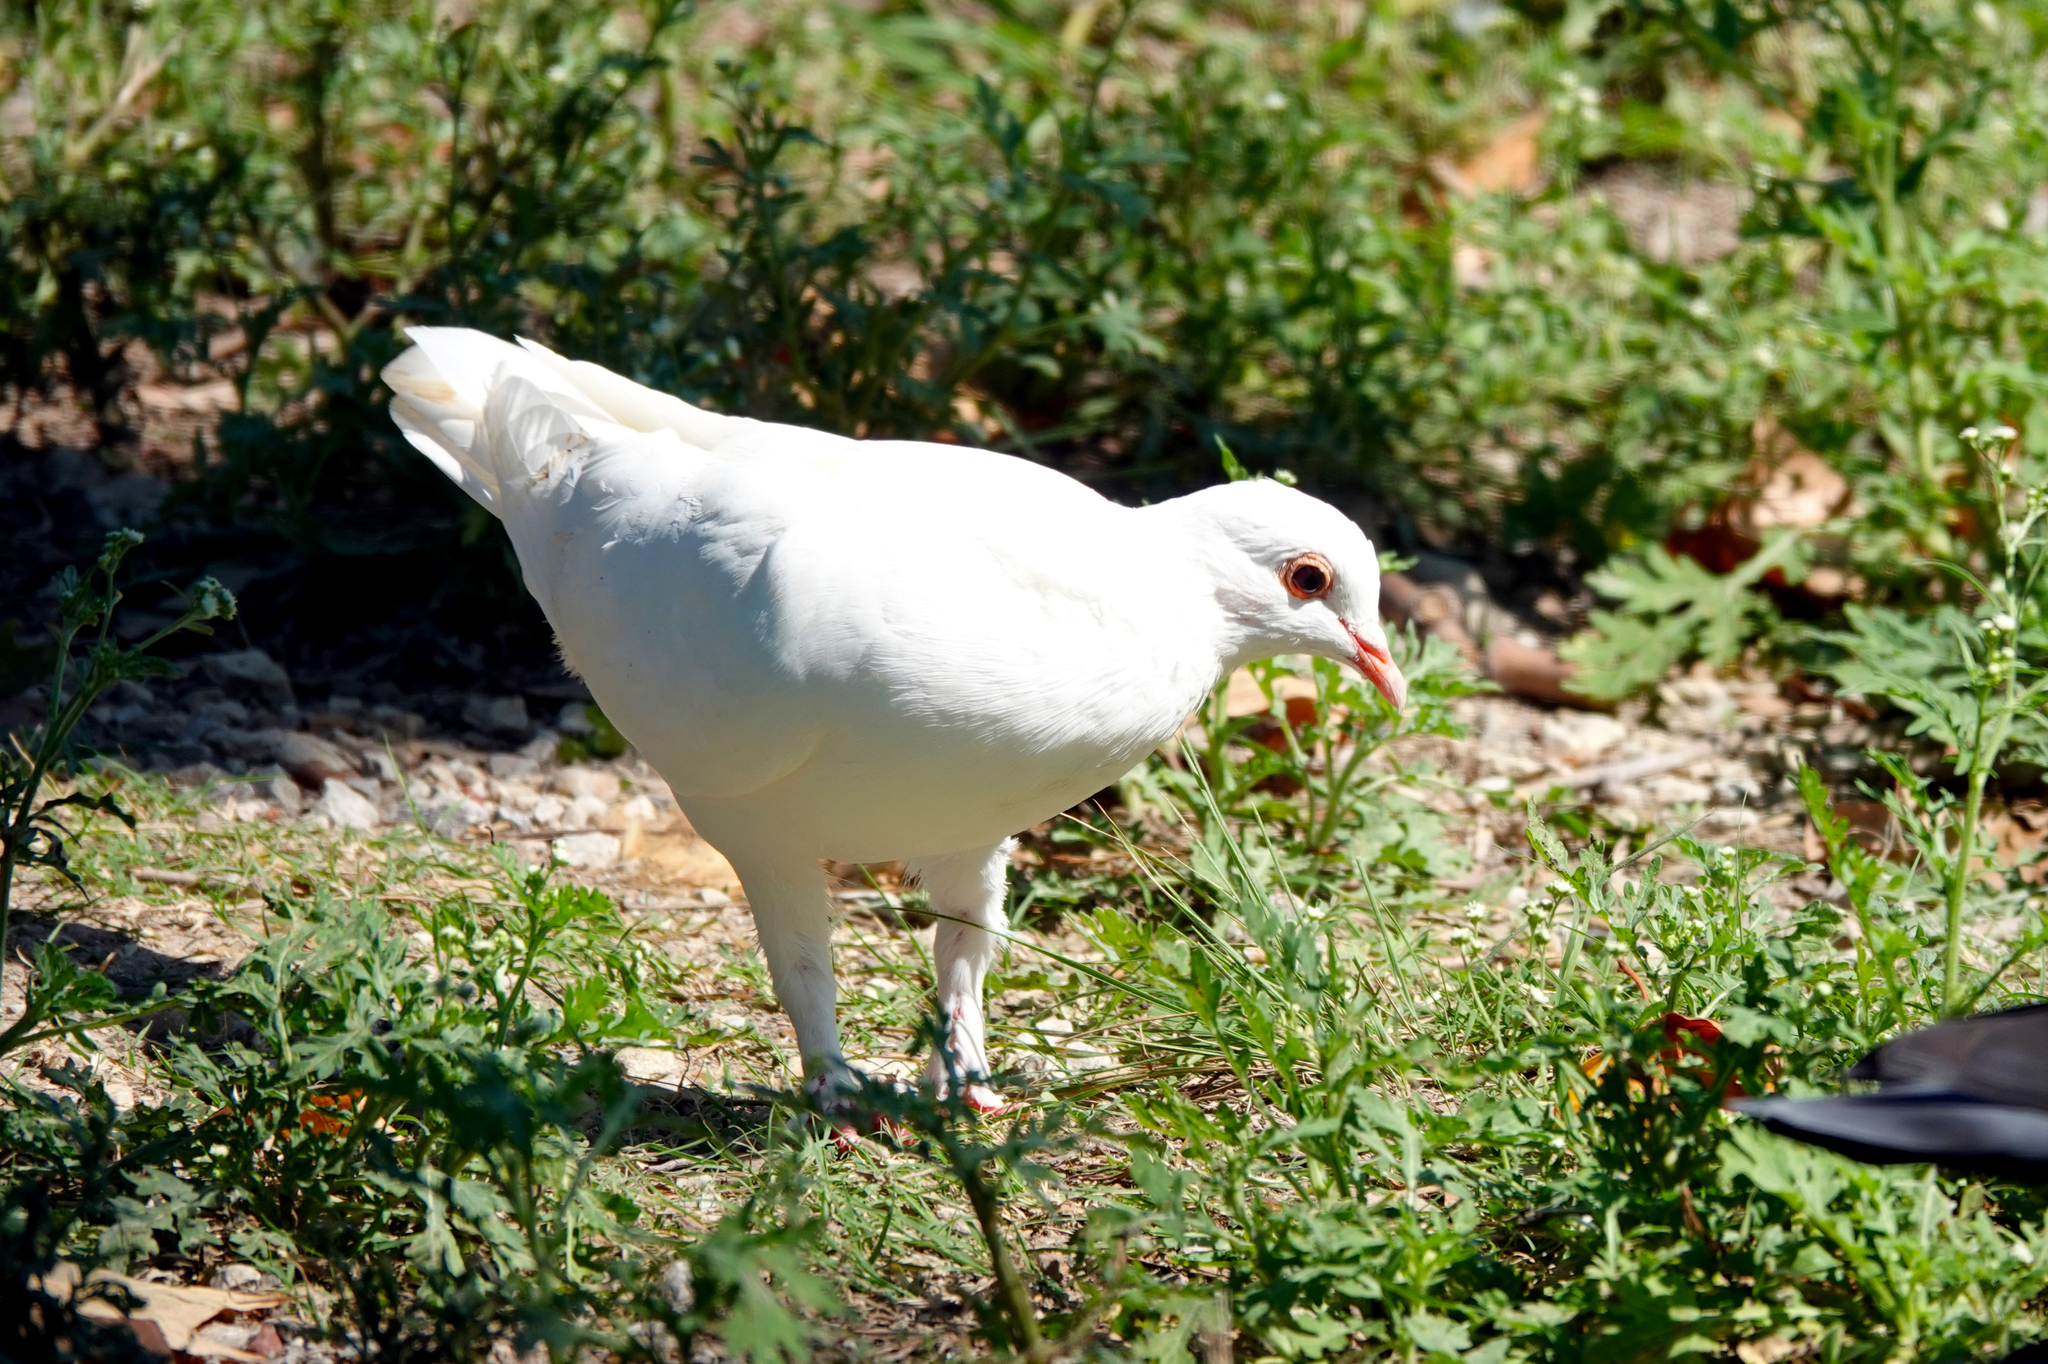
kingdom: Animalia
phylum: Chordata
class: Aves
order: Columbiformes
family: Columbidae
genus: Columba
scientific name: Columba livia
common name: Rock pigeon
